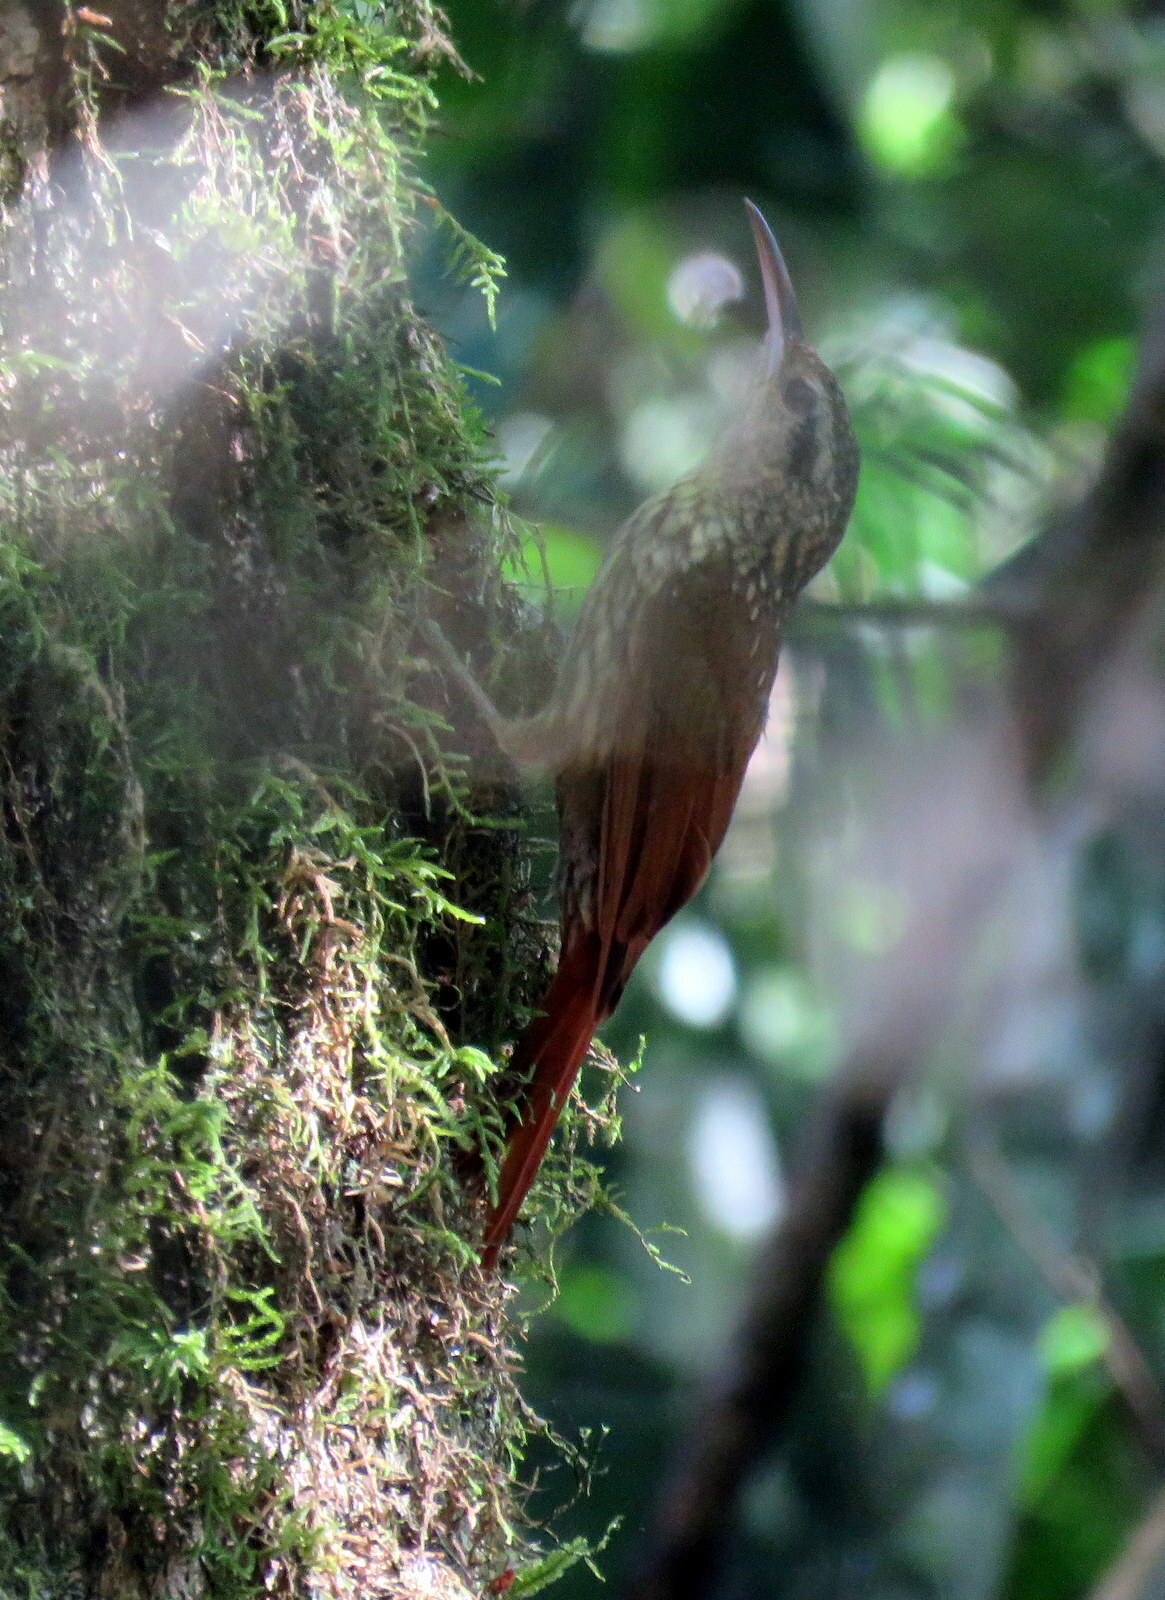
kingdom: Animalia
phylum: Chordata
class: Aves
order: Passeriformes
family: Furnariidae
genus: Xiphorhynchus
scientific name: Xiphorhynchus fuscus
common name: Lesser woodcreeper
